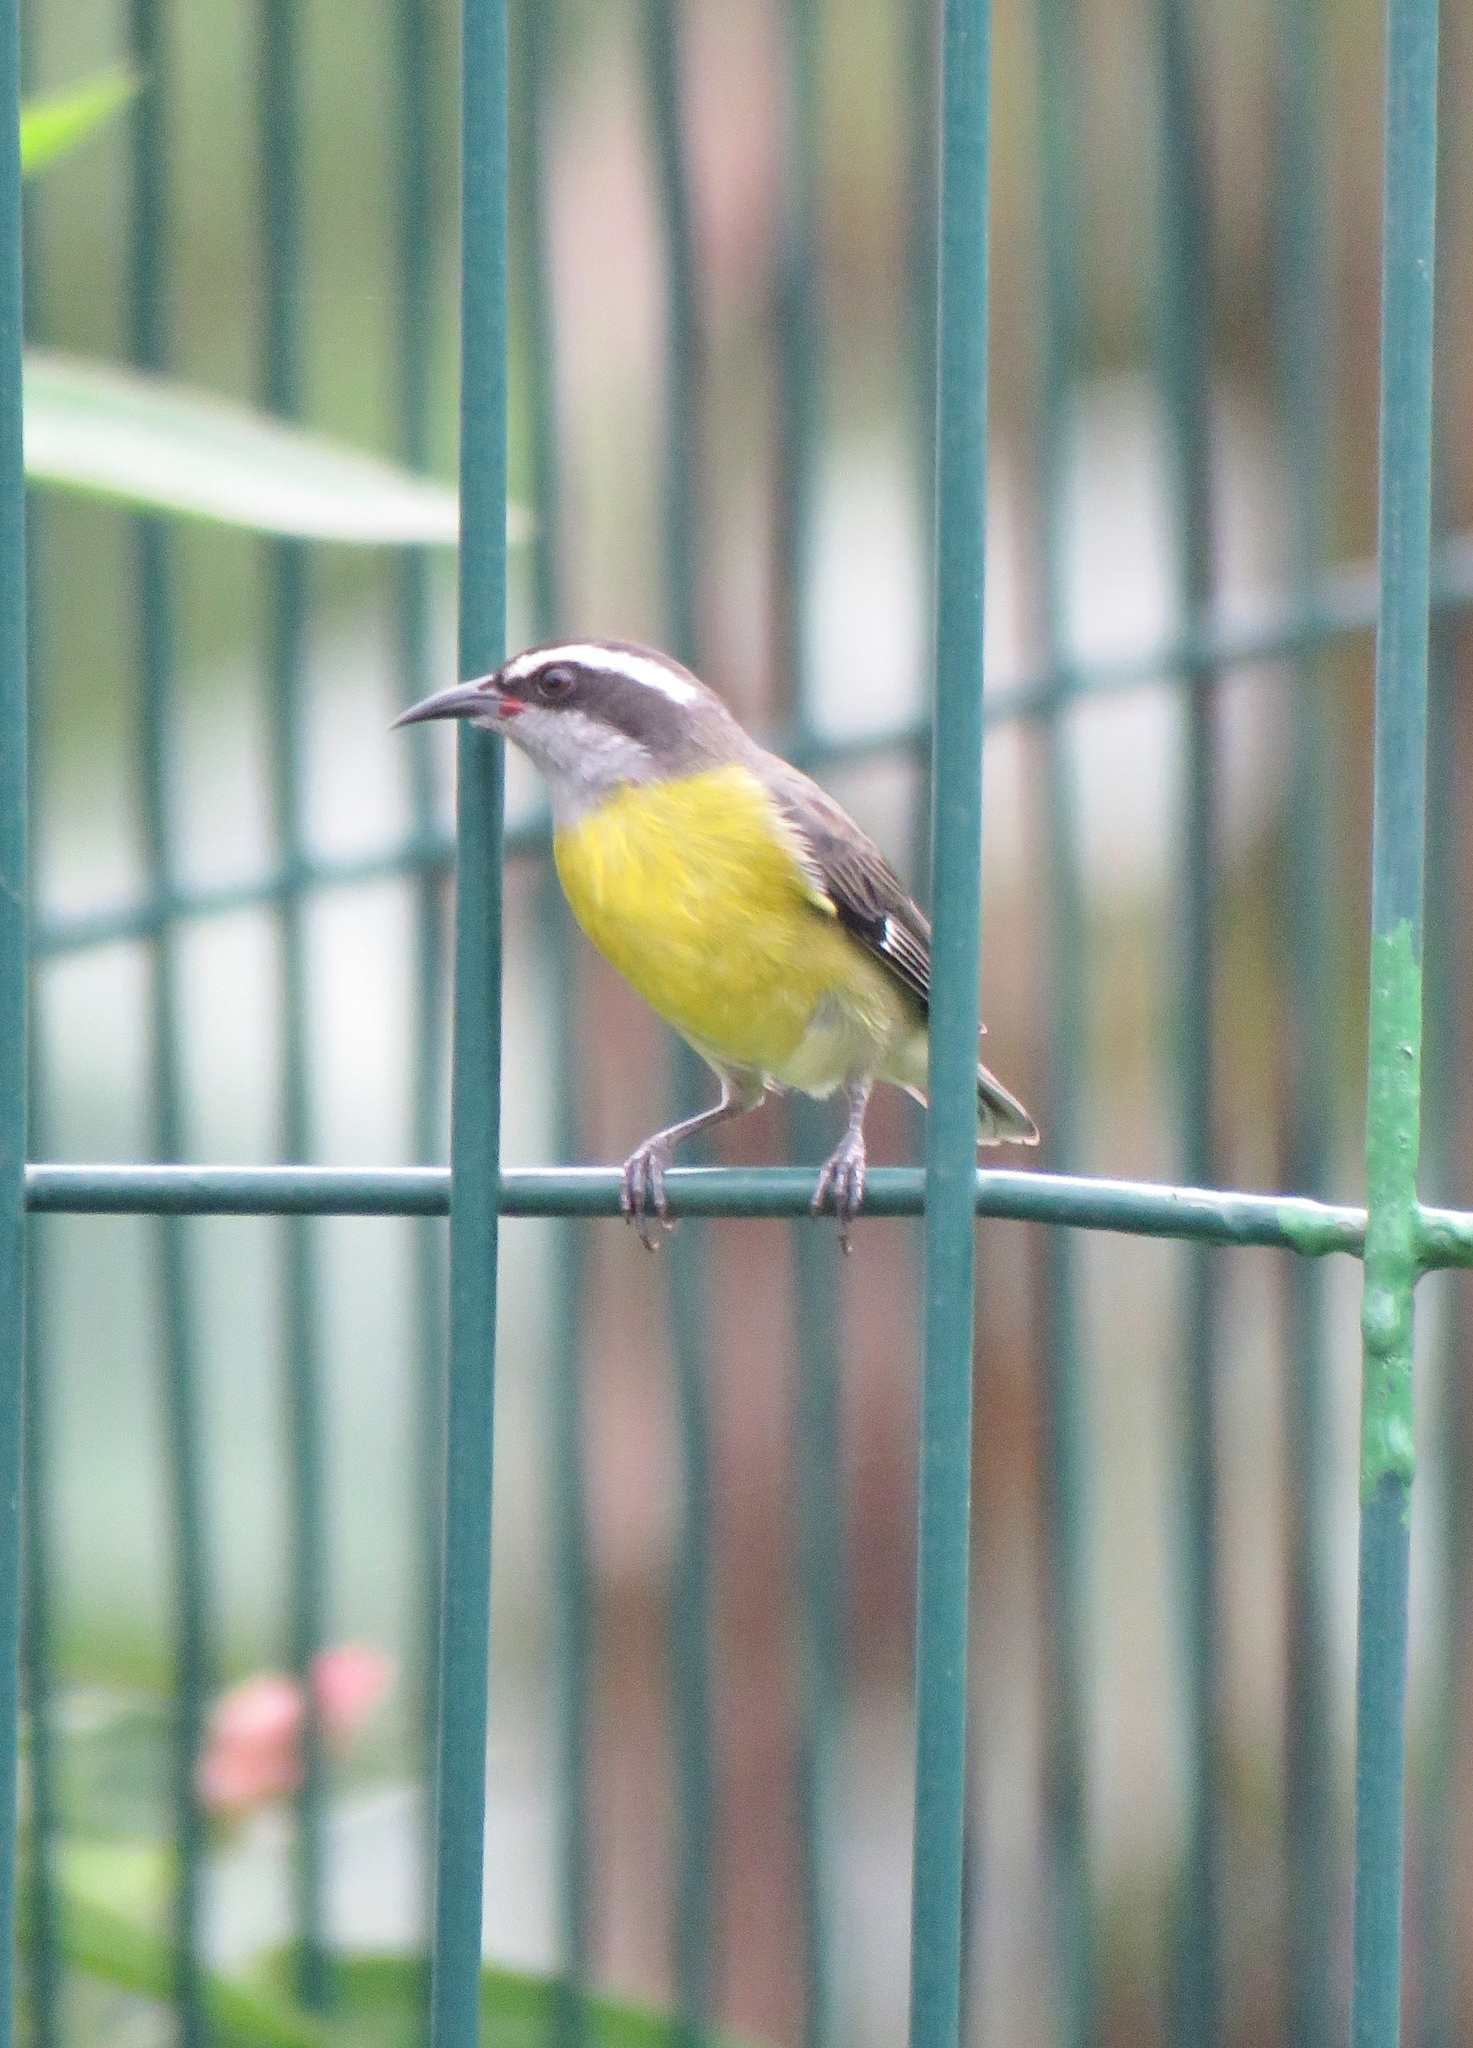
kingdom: Animalia
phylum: Chordata
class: Aves
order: Passeriformes
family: Thraupidae
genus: Coereba
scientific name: Coereba flaveola
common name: Bananaquit
